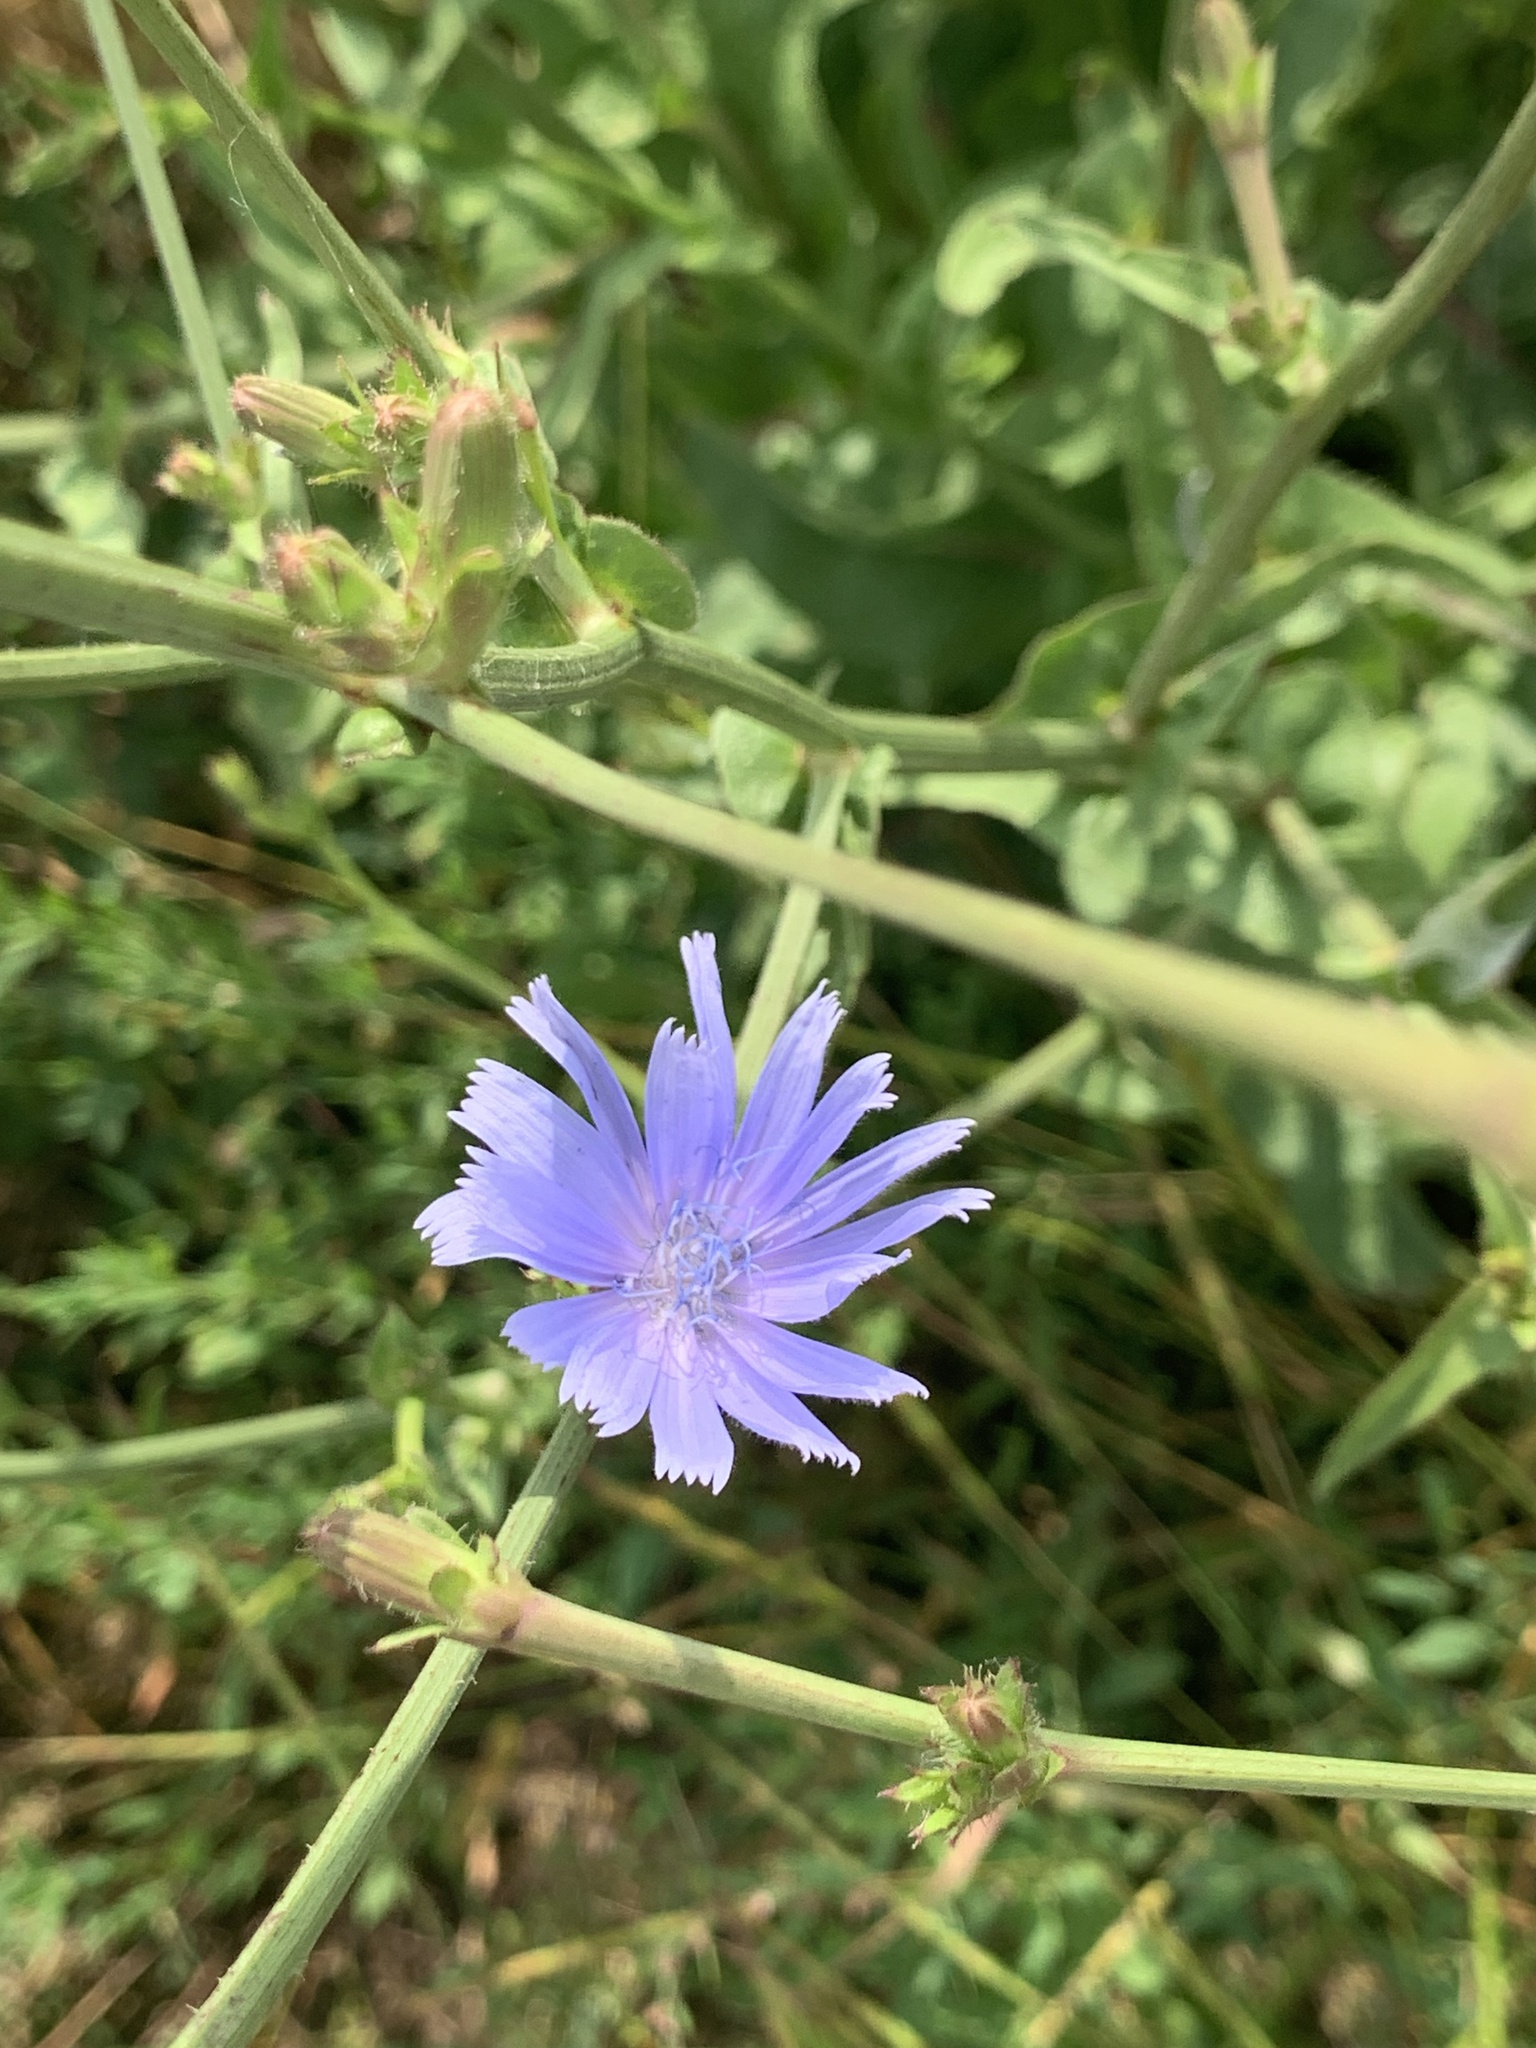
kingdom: Plantae
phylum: Tracheophyta
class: Magnoliopsida
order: Asterales
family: Asteraceae
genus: Cichorium
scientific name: Cichorium intybus
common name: Chicory
